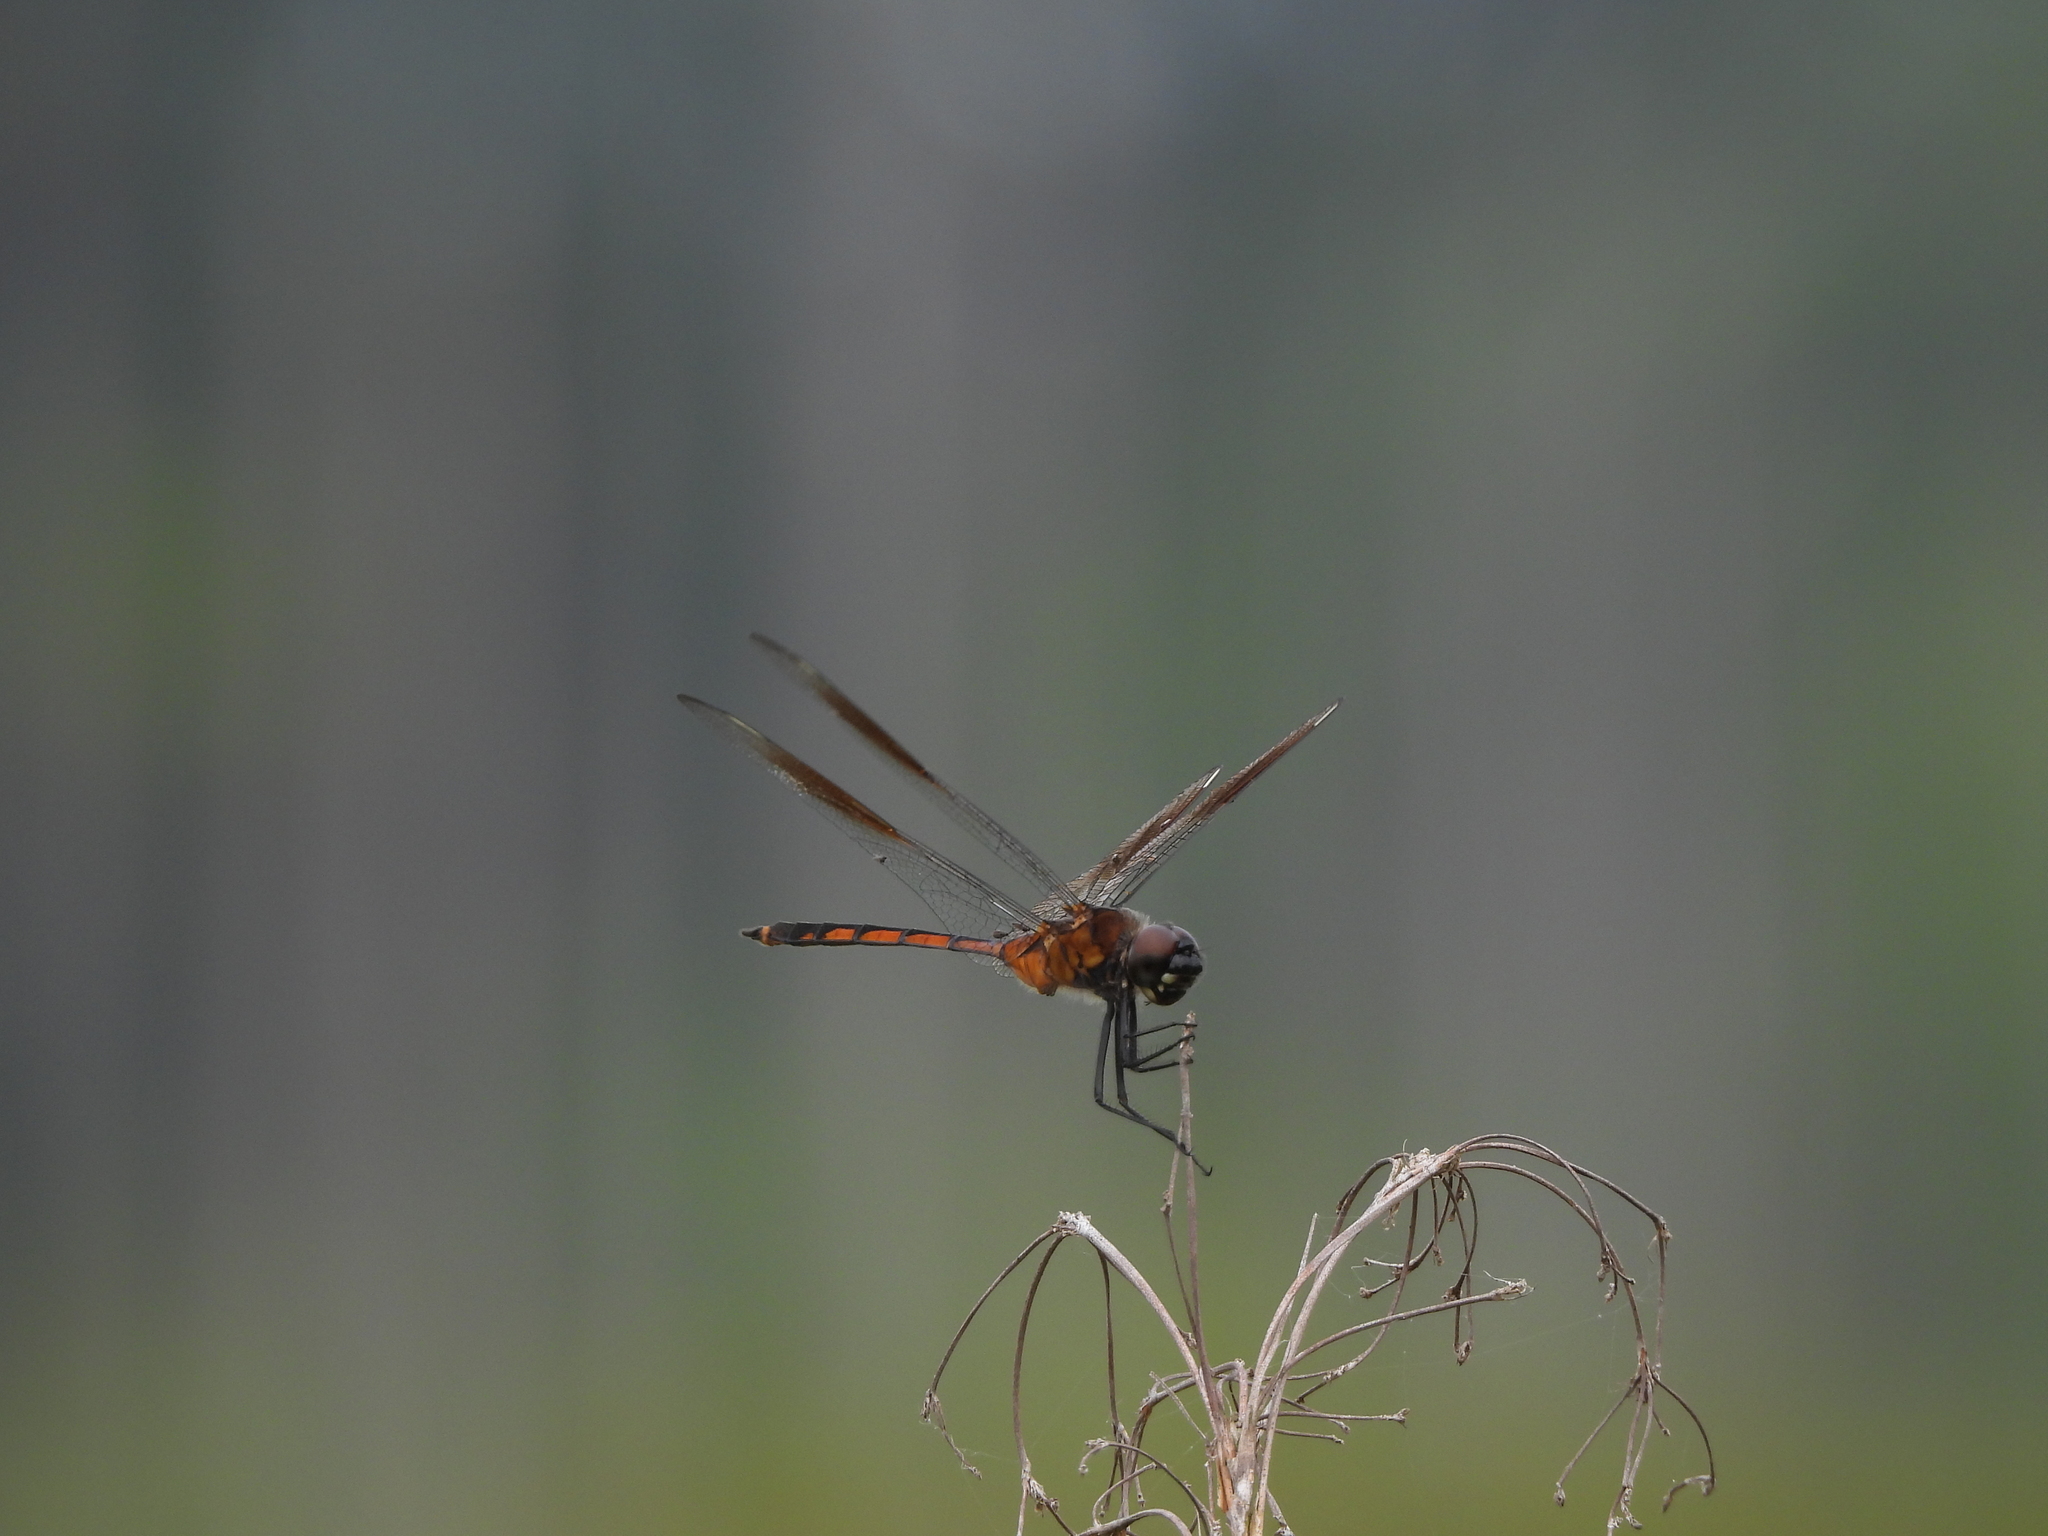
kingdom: Animalia
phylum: Arthropoda
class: Insecta
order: Odonata
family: Libellulidae
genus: Brachymesia
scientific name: Brachymesia gravida
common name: Four-spotted pennant
